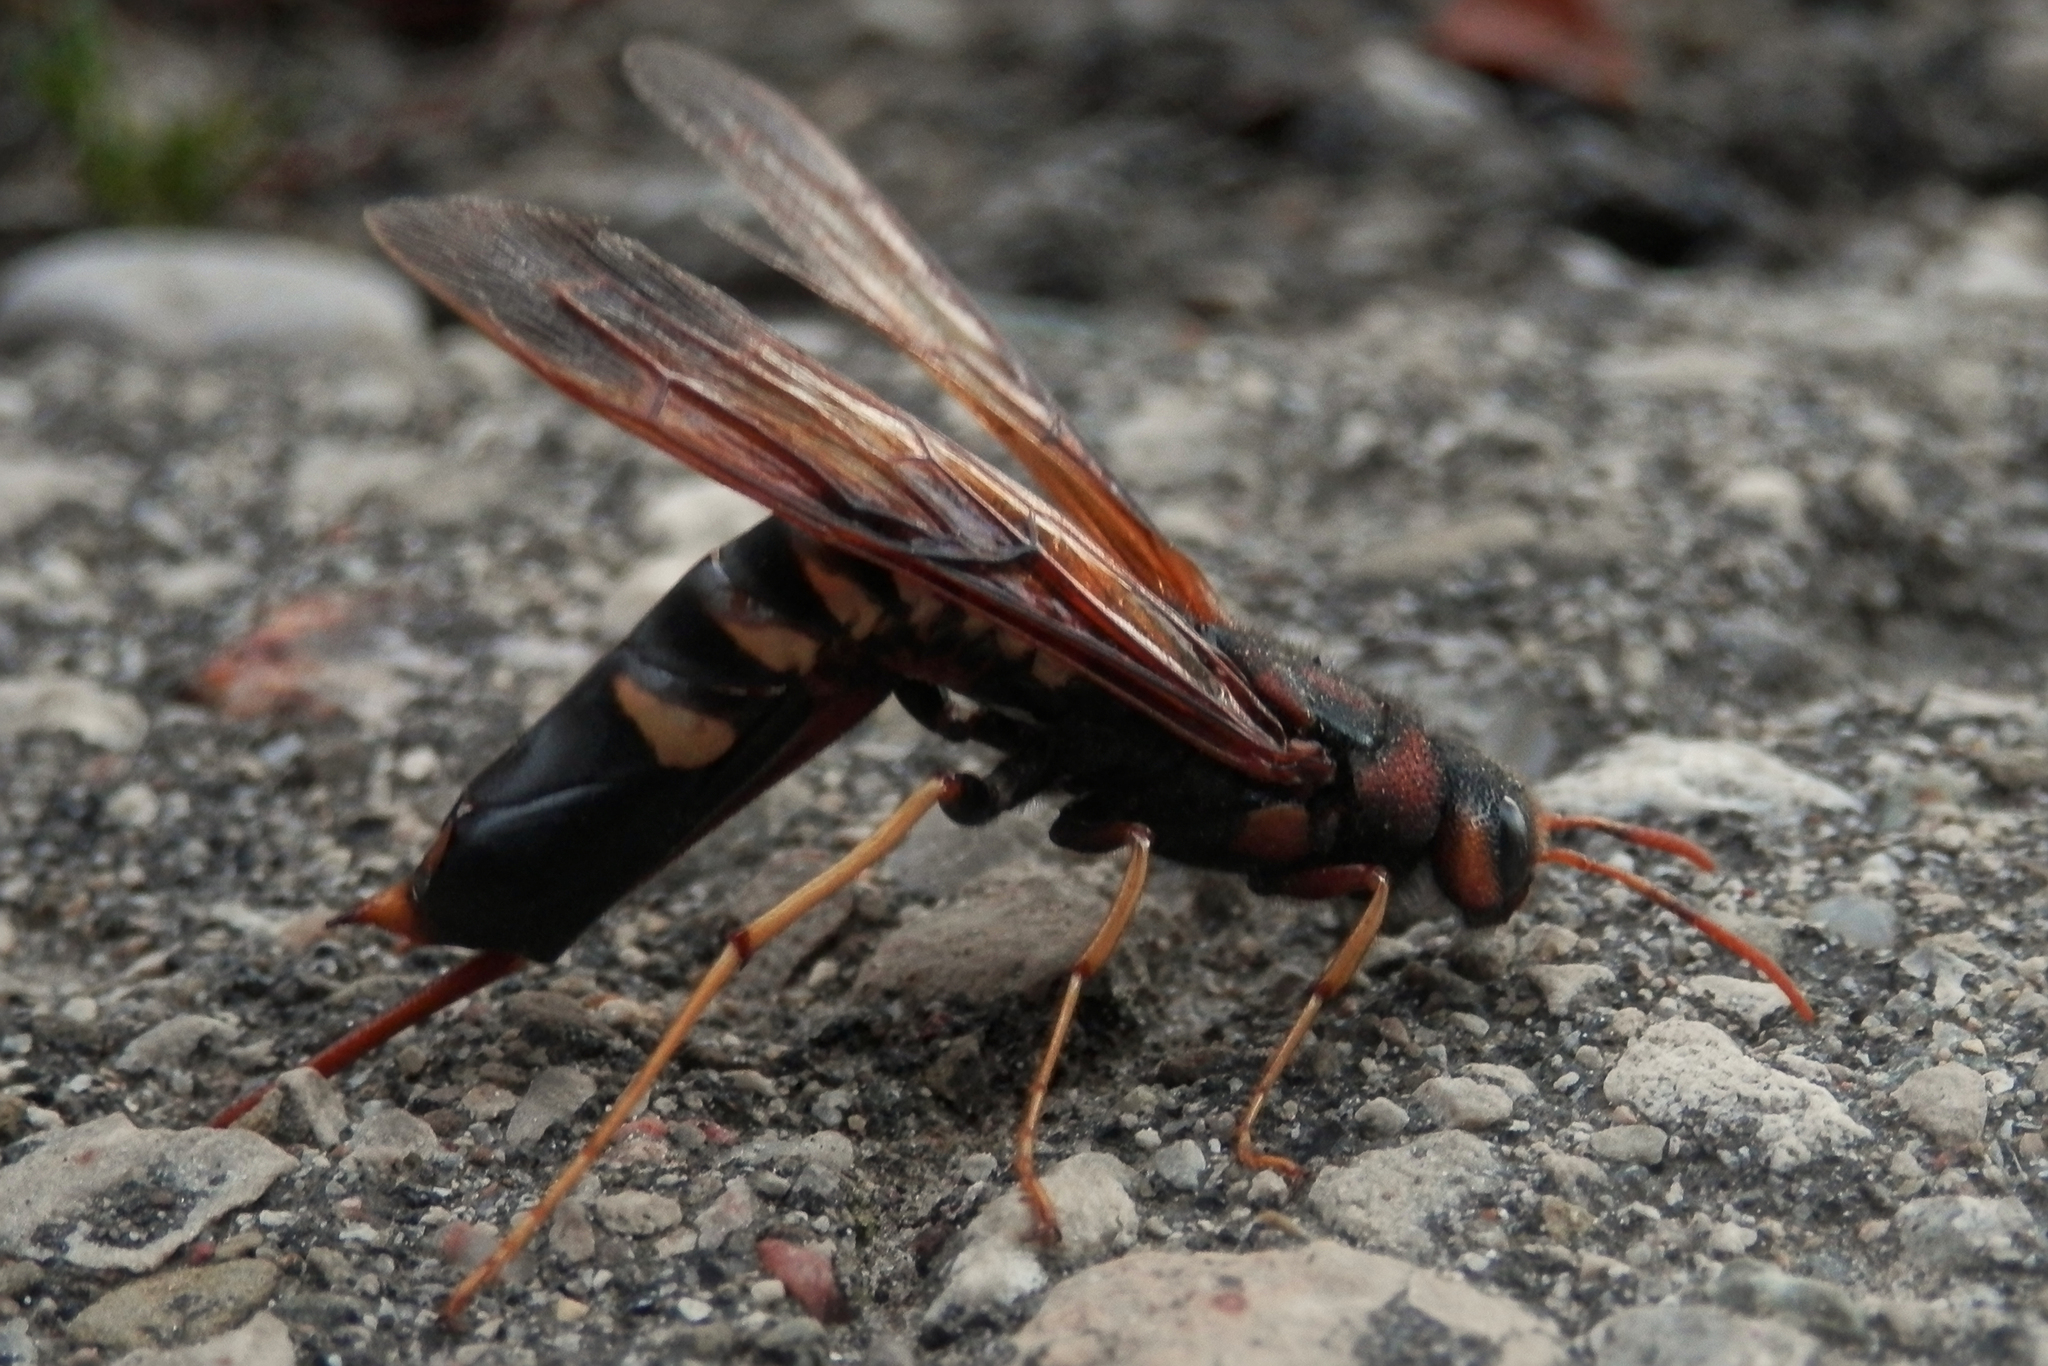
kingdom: Animalia
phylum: Arthropoda
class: Insecta
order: Hymenoptera
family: Siricidae
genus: Tremex
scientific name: Tremex columba
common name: Wasp
